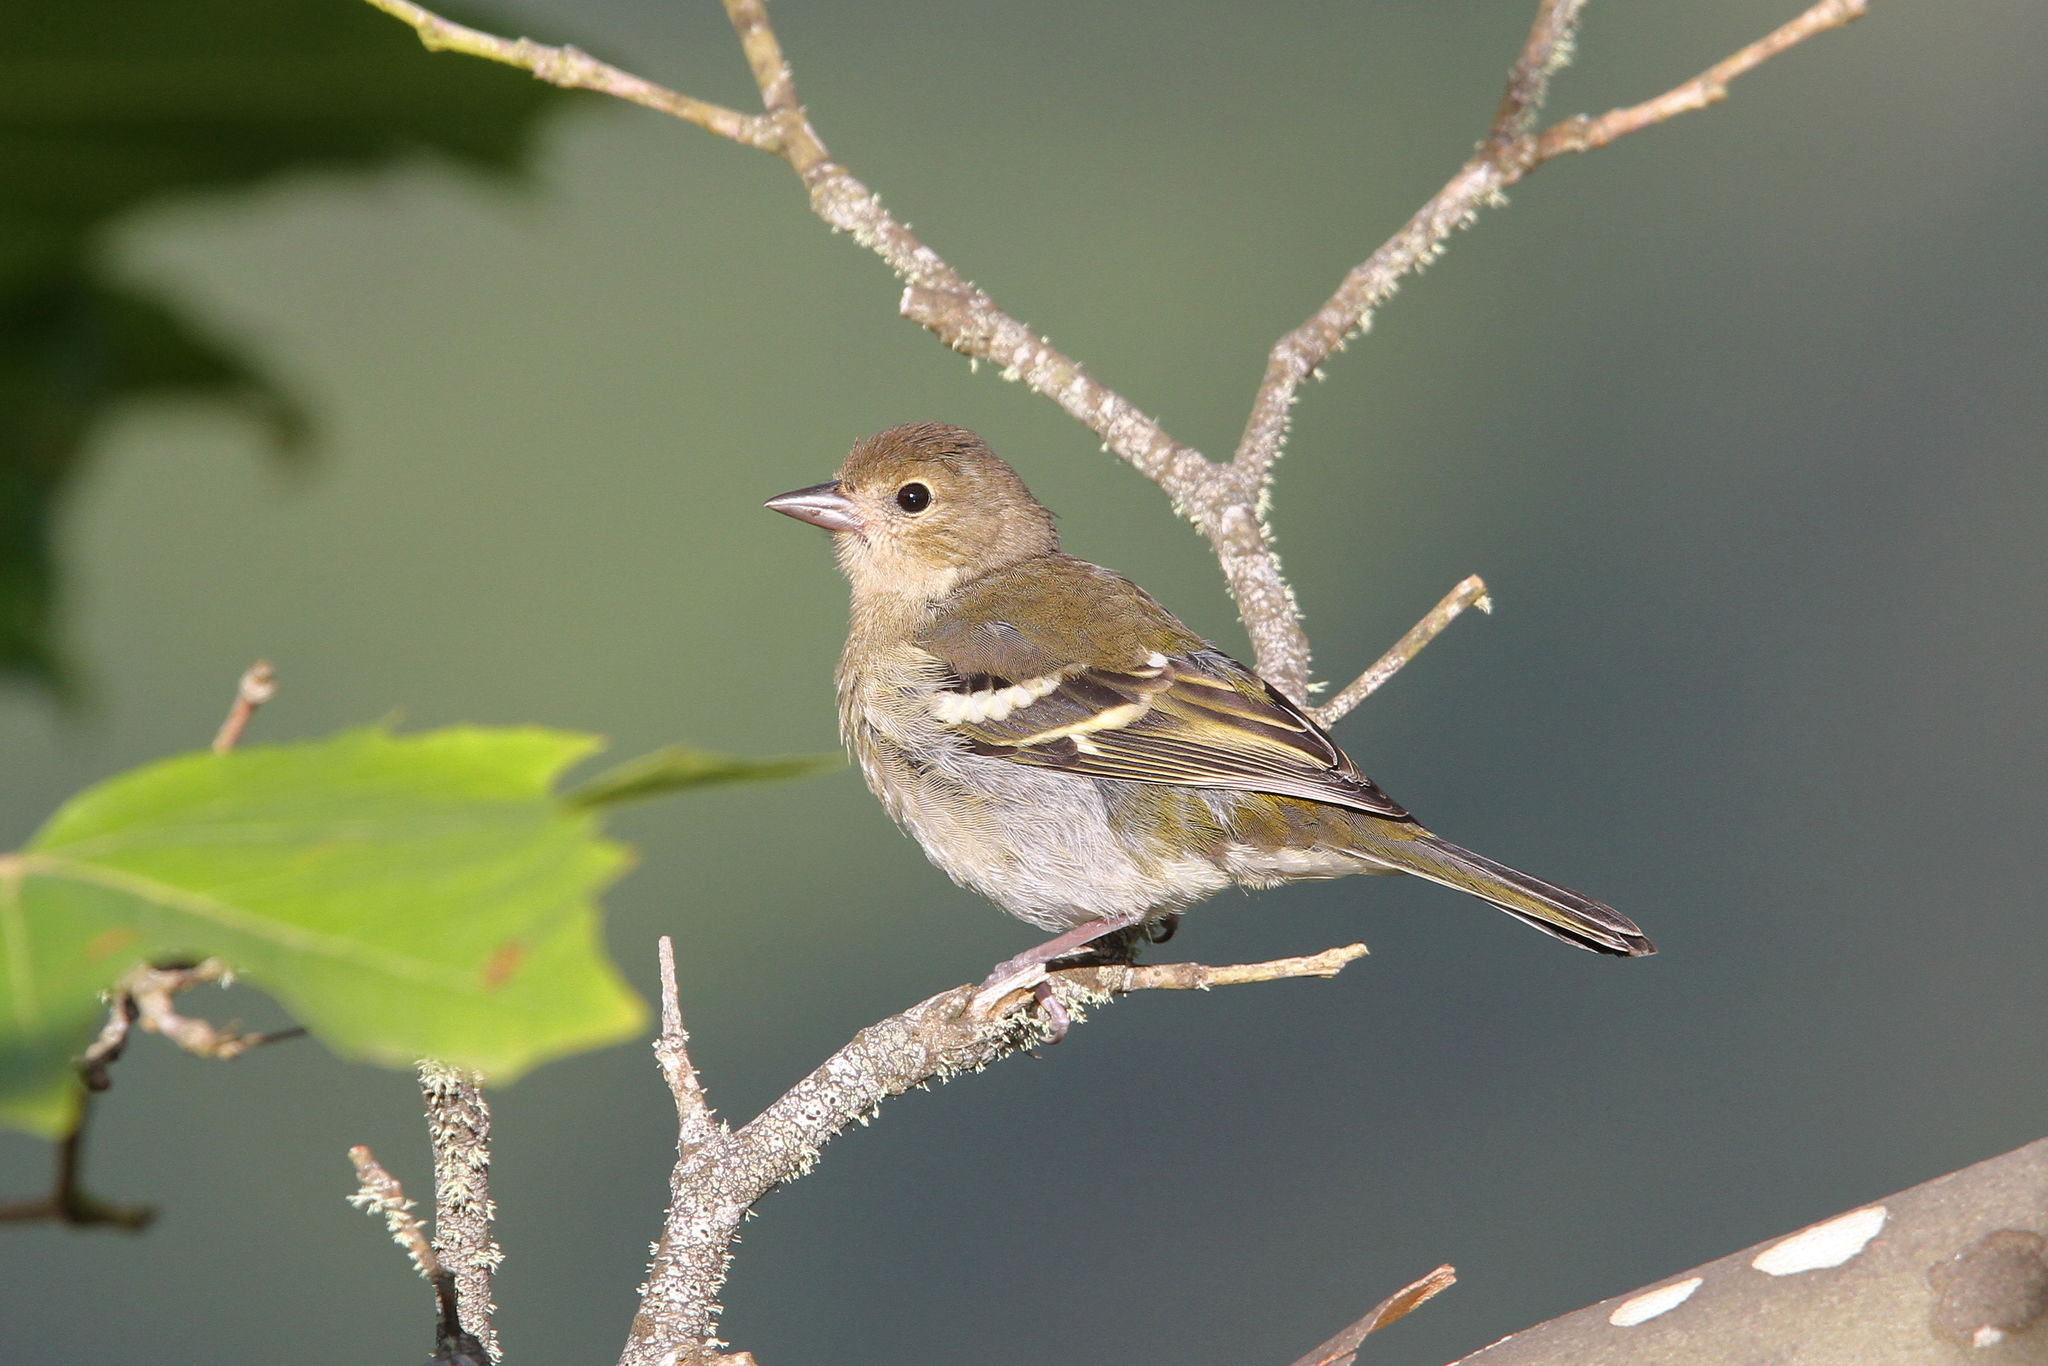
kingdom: Animalia
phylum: Chordata
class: Aves
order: Passeriformes
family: Fringillidae
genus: Fringilla
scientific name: Fringilla maderensis
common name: Madeira chaffinch
